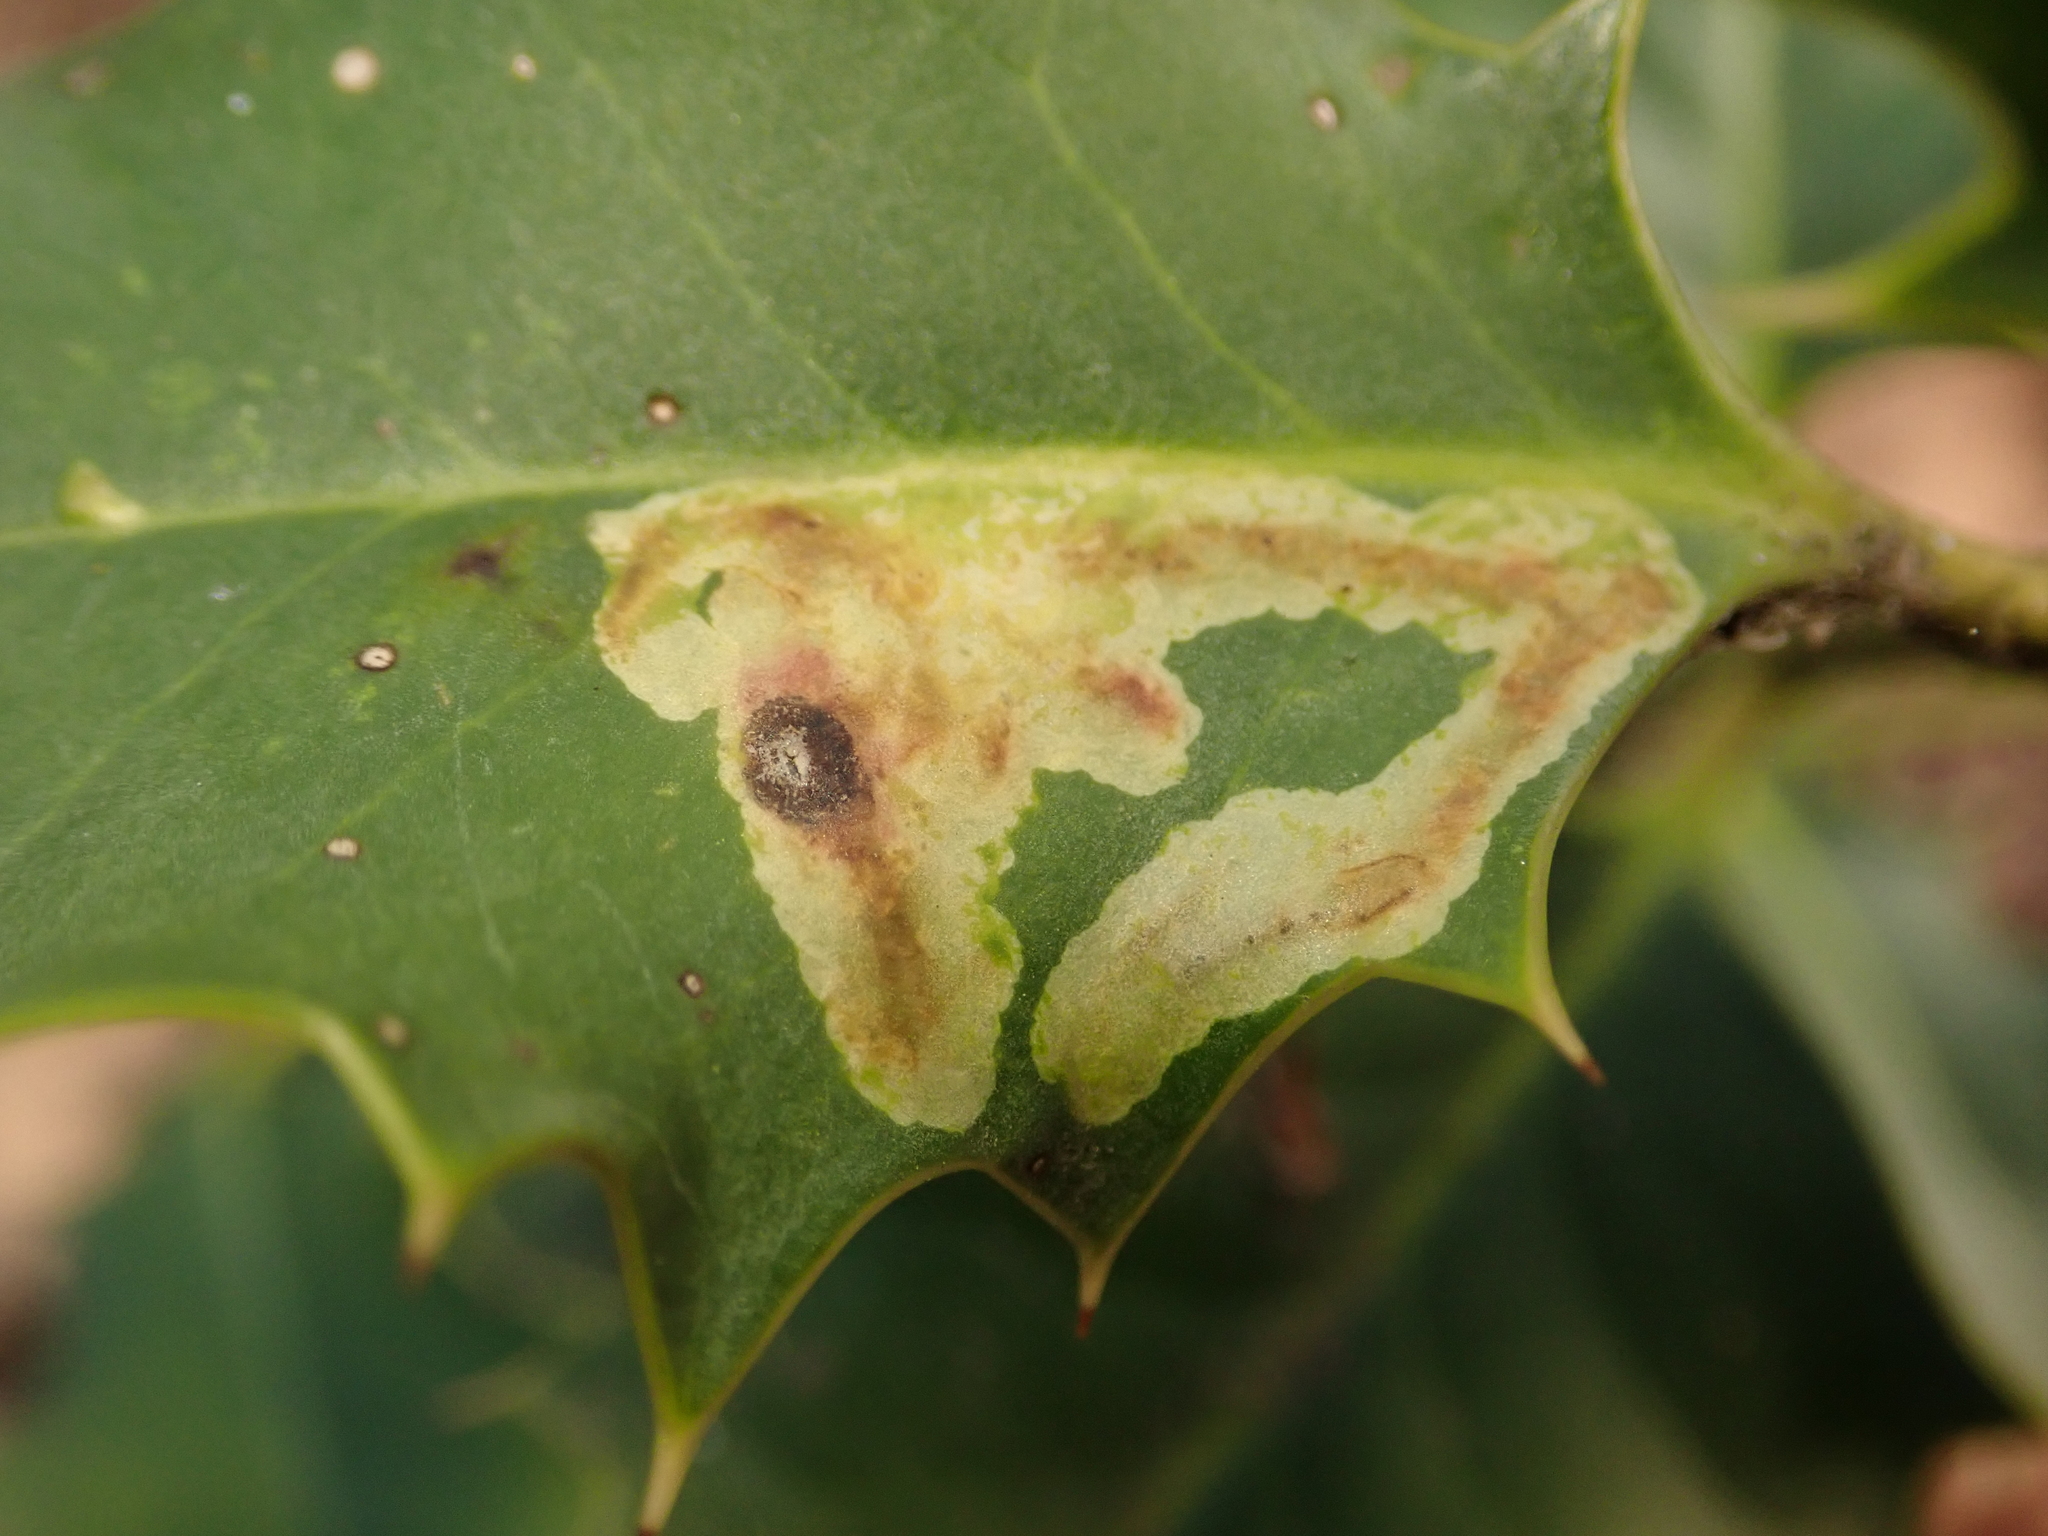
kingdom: Animalia
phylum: Arthropoda
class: Insecta
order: Diptera
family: Agromyzidae
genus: Phytomyza
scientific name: Phytomyza ilicis
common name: Holly leafminer
